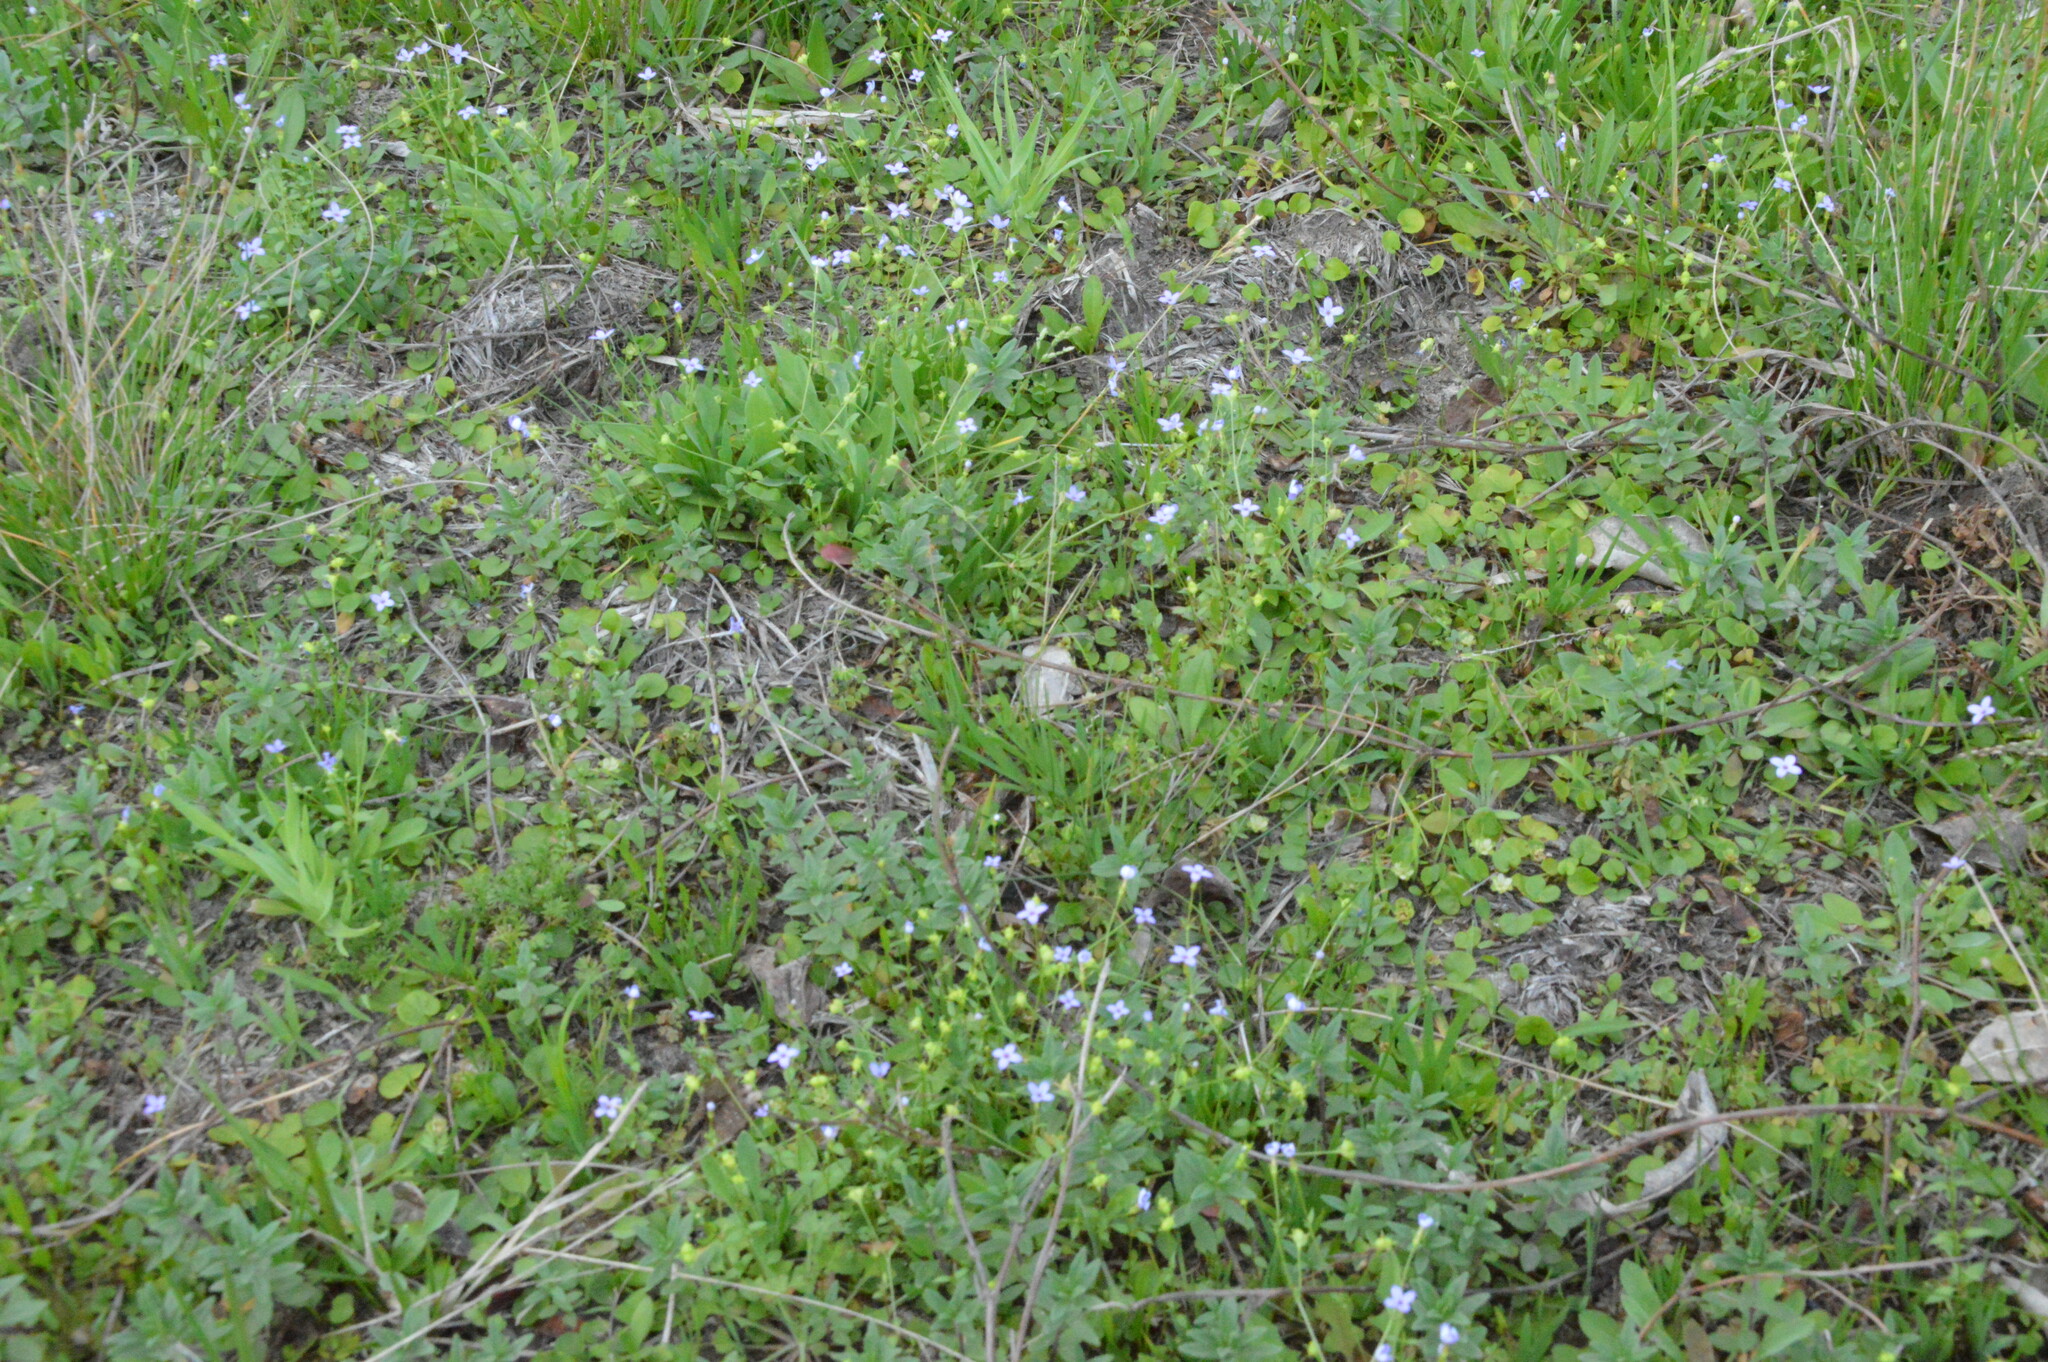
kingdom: Plantae
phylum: Tracheophyta
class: Magnoliopsida
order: Gentianales
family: Rubiaceae
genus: Houstonia
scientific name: Houstonia pusilla
